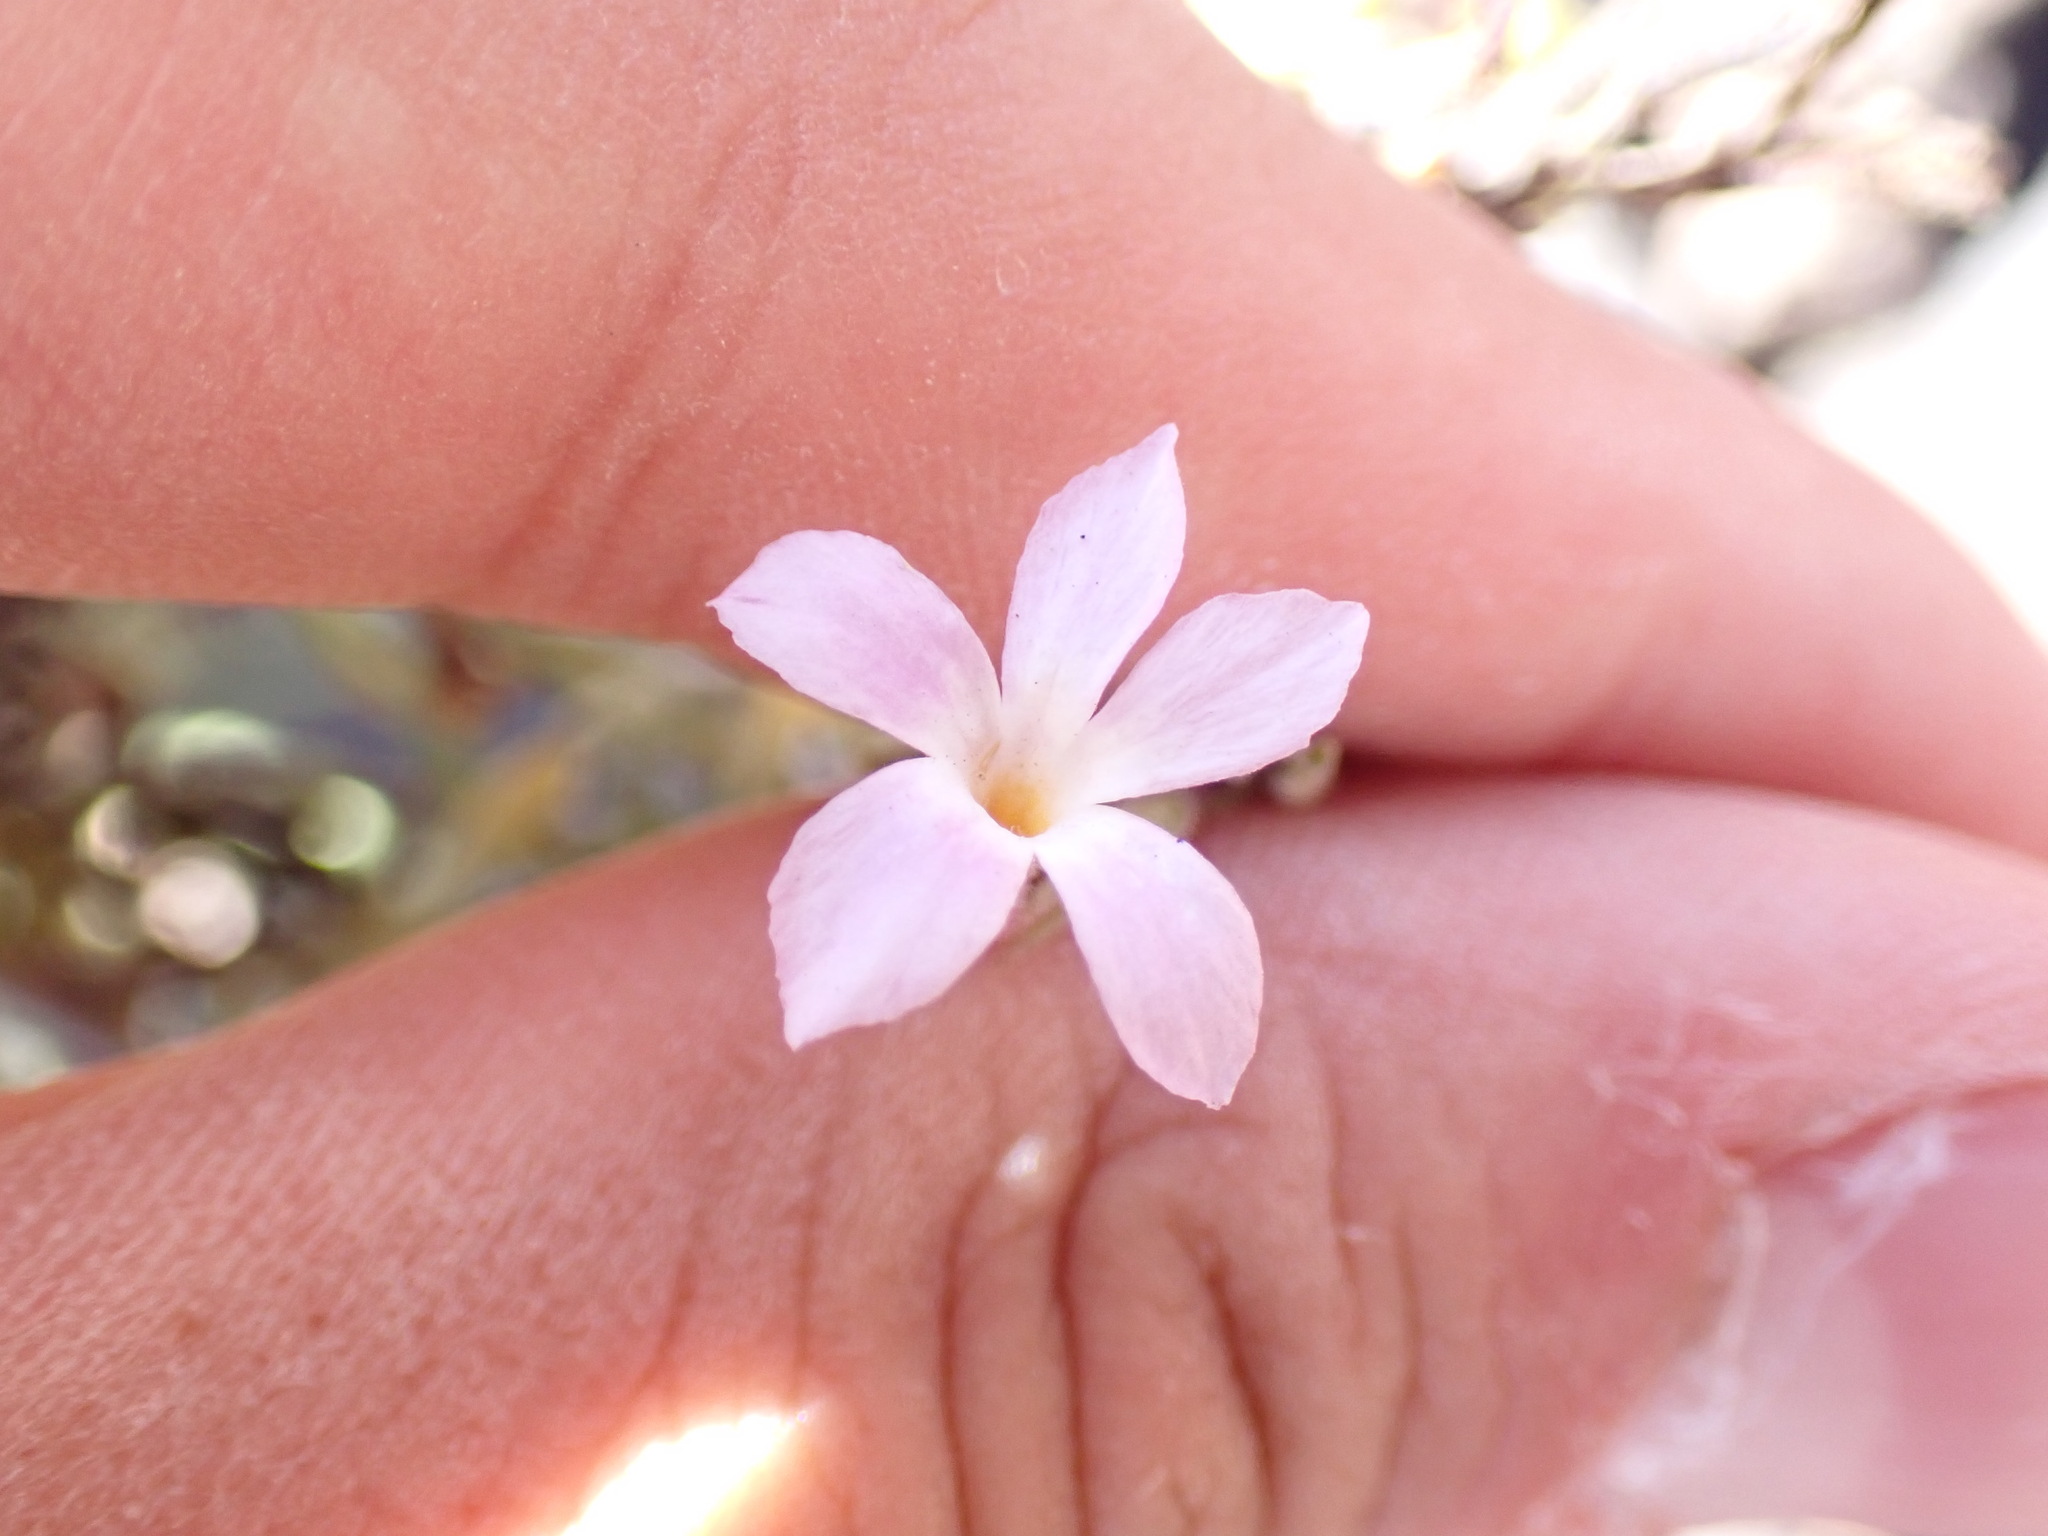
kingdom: Plantae
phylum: Tracheophyta
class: Magnoliopsida
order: Lamiales
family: Plantaginaceae
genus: Campylanthus
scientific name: Campylanthus salsoloides
